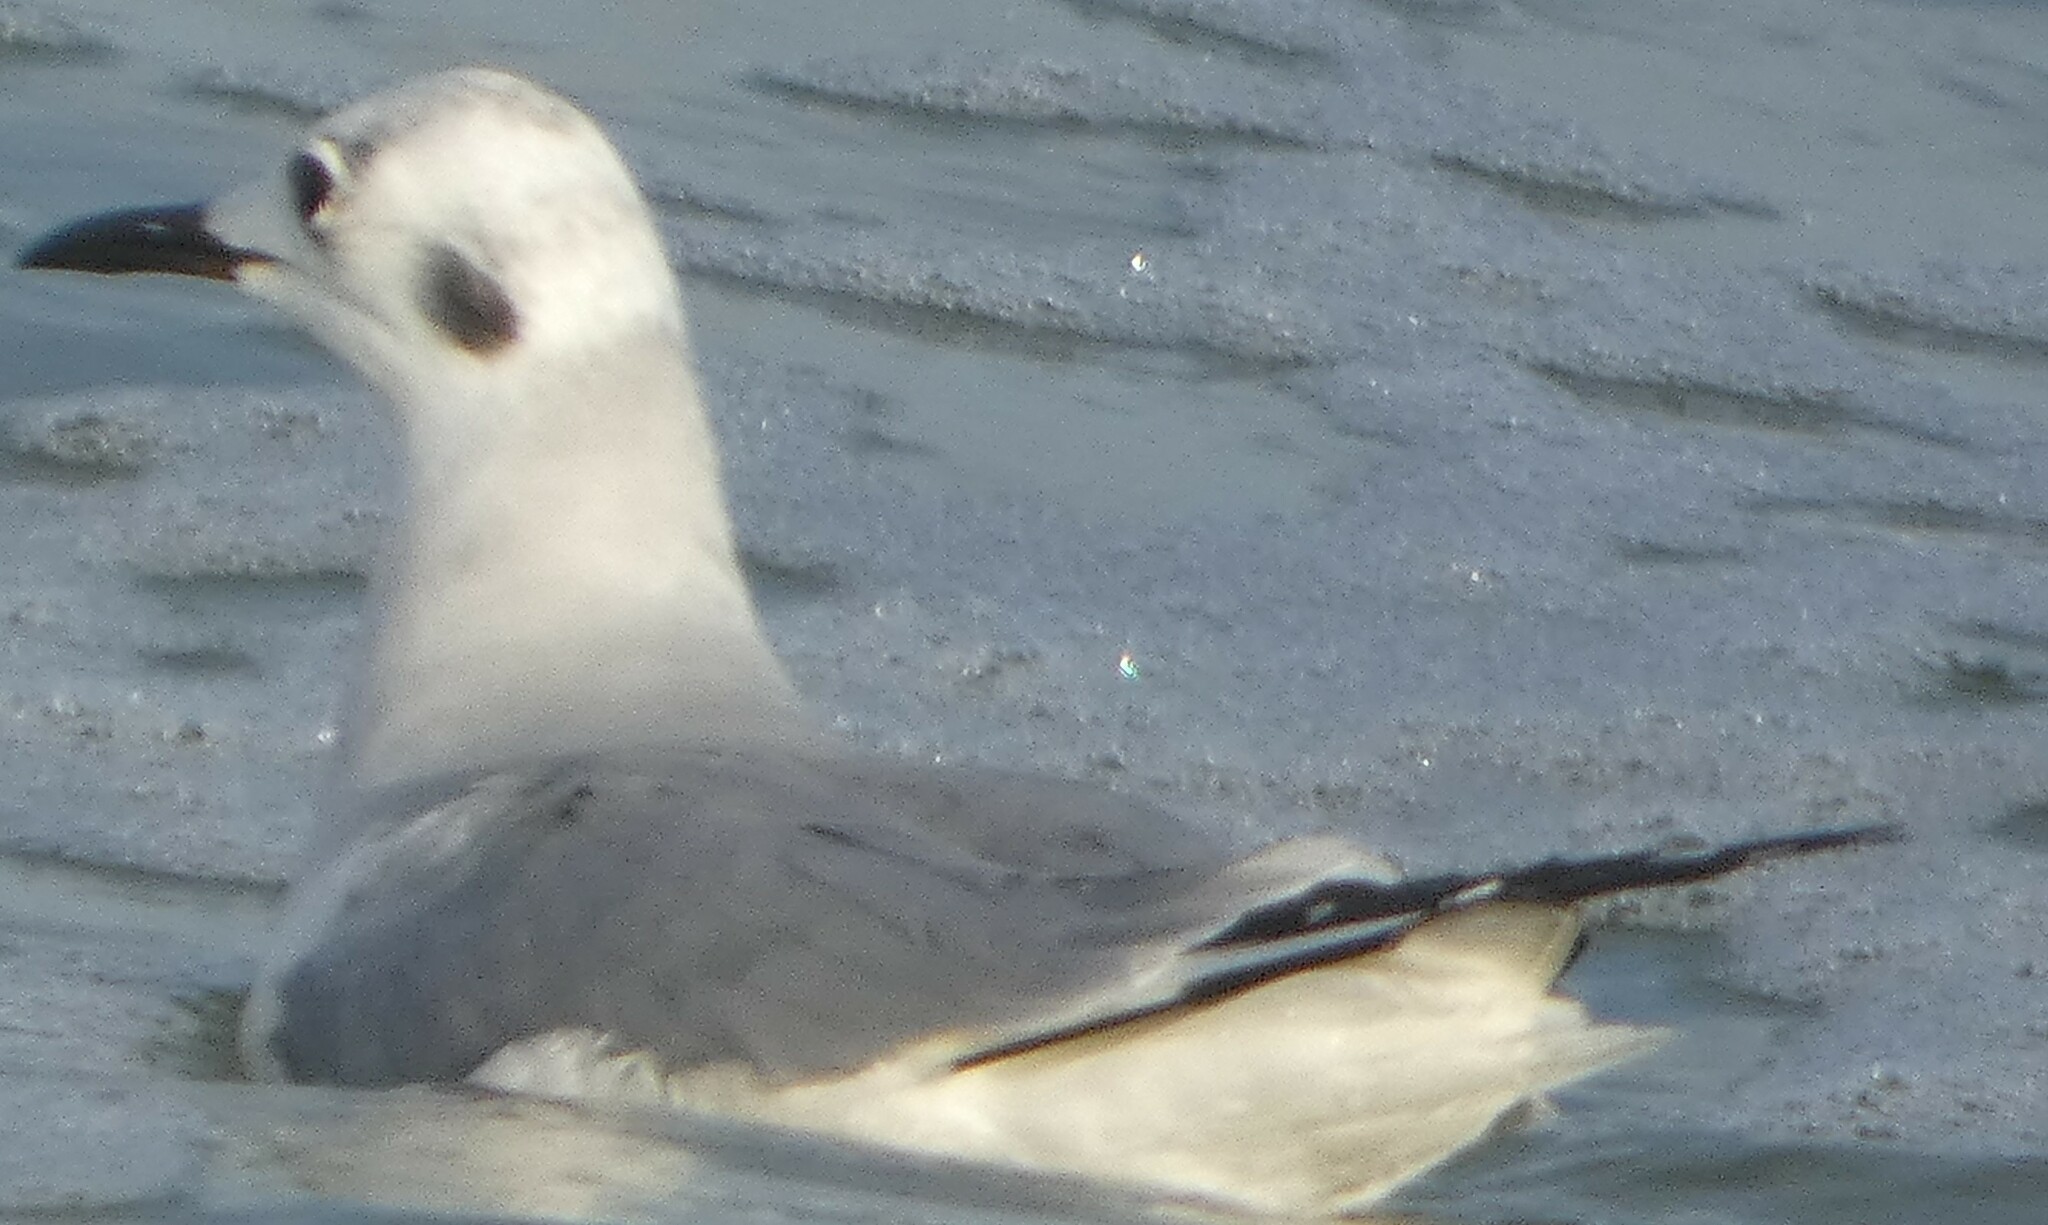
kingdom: Animalia
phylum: Chordata
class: Aves
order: Charadriiformes
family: Laridae
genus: Chroicocephalus
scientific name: Chroicocephalus philadelphia
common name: Bonaparte's gull
